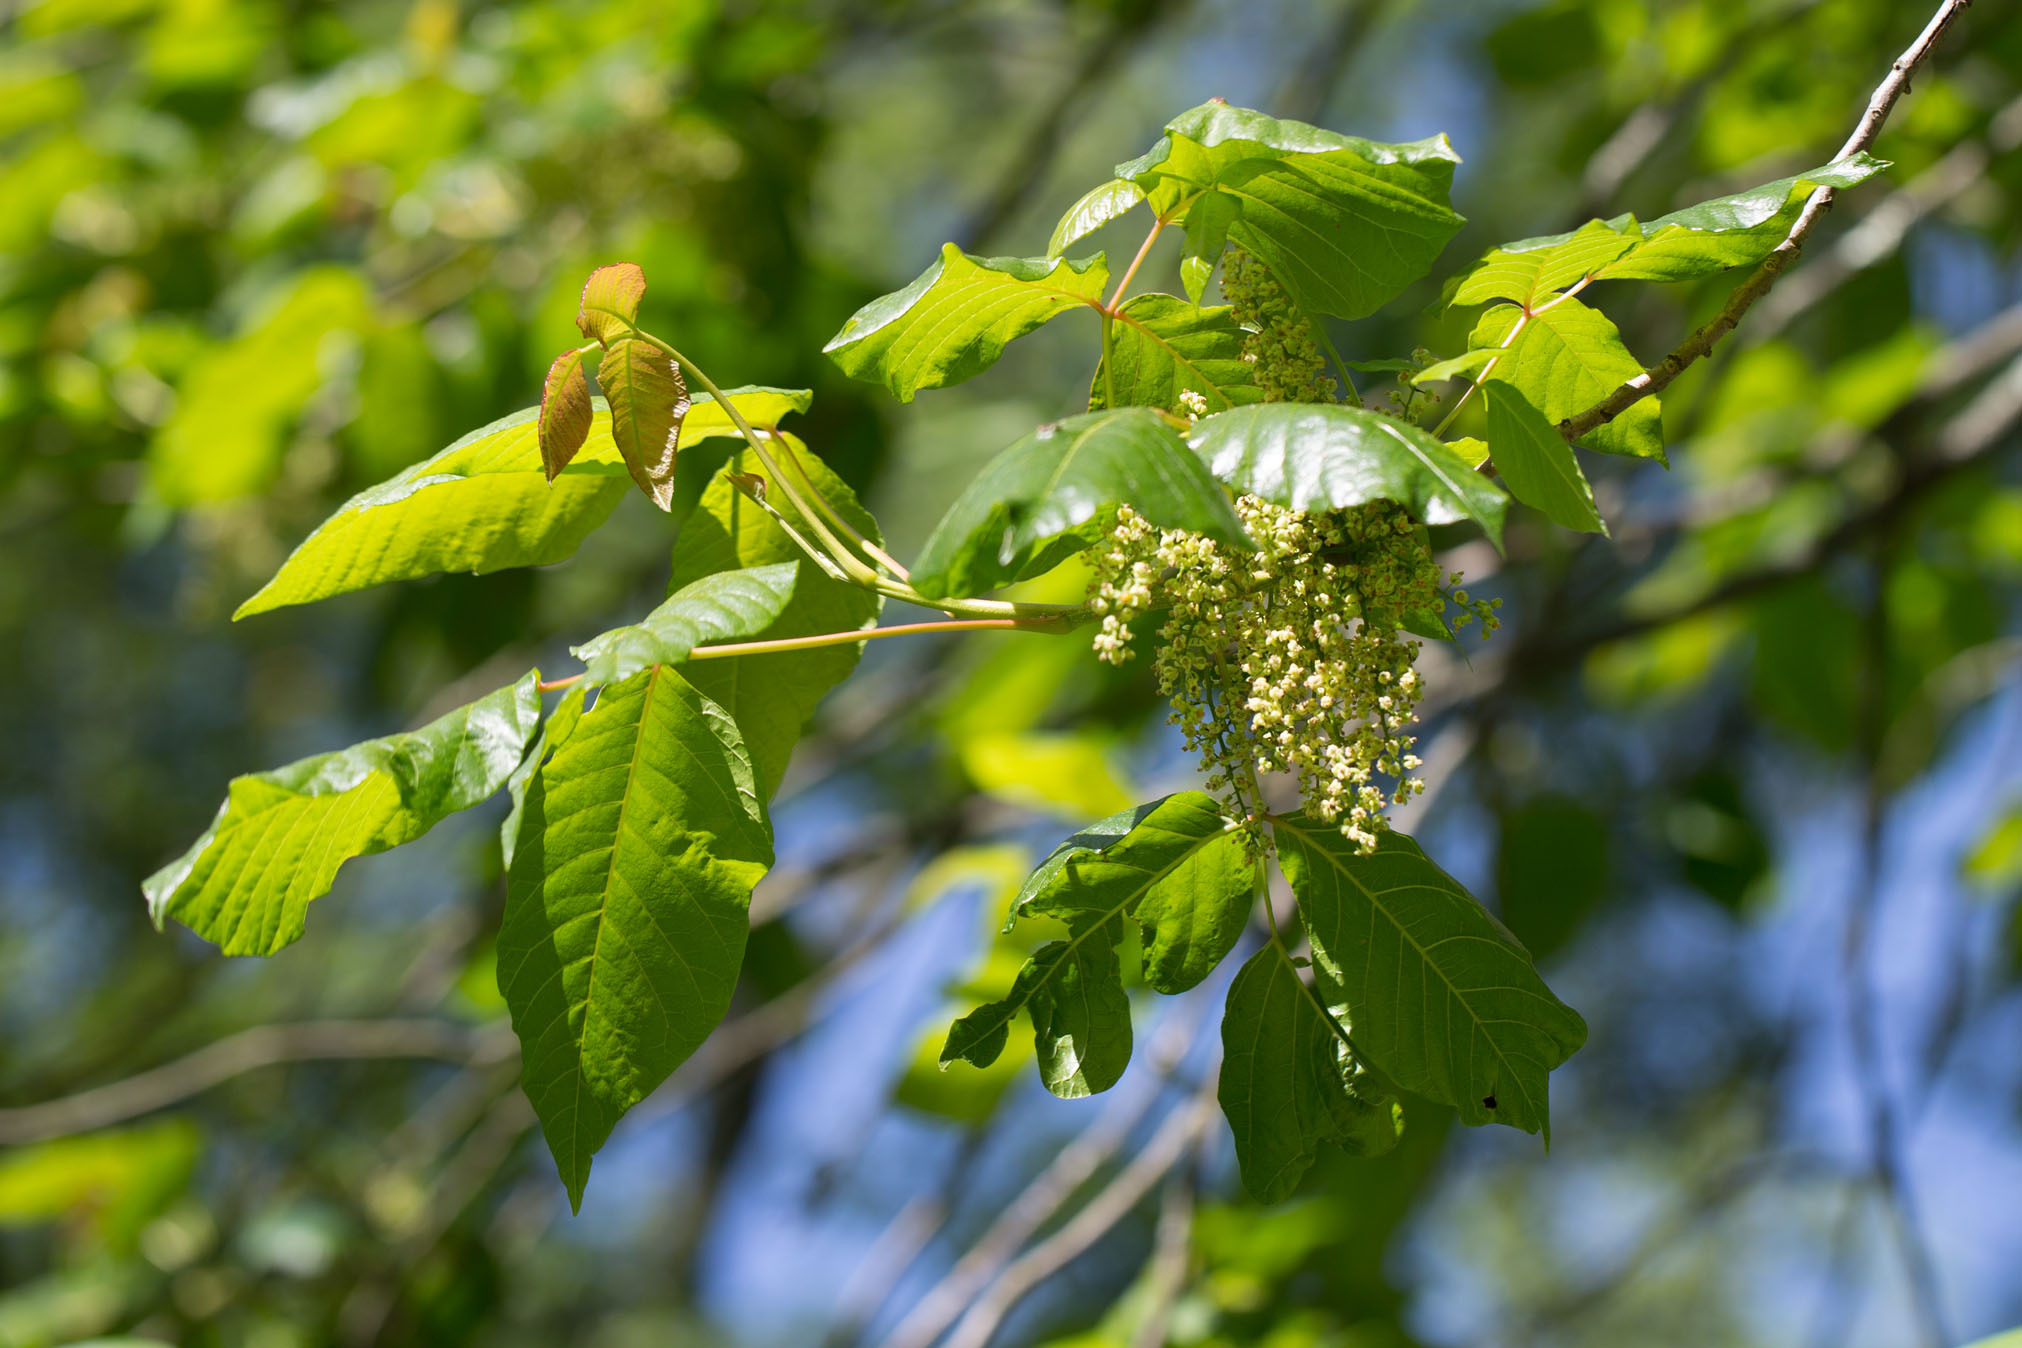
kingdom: Plantae
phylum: Tracheophyta
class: Magnoliopsida
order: Sapindales
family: Anacardiaceae
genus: Toxicodendron
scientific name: Toxicodendron radicans
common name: Poison ivy
